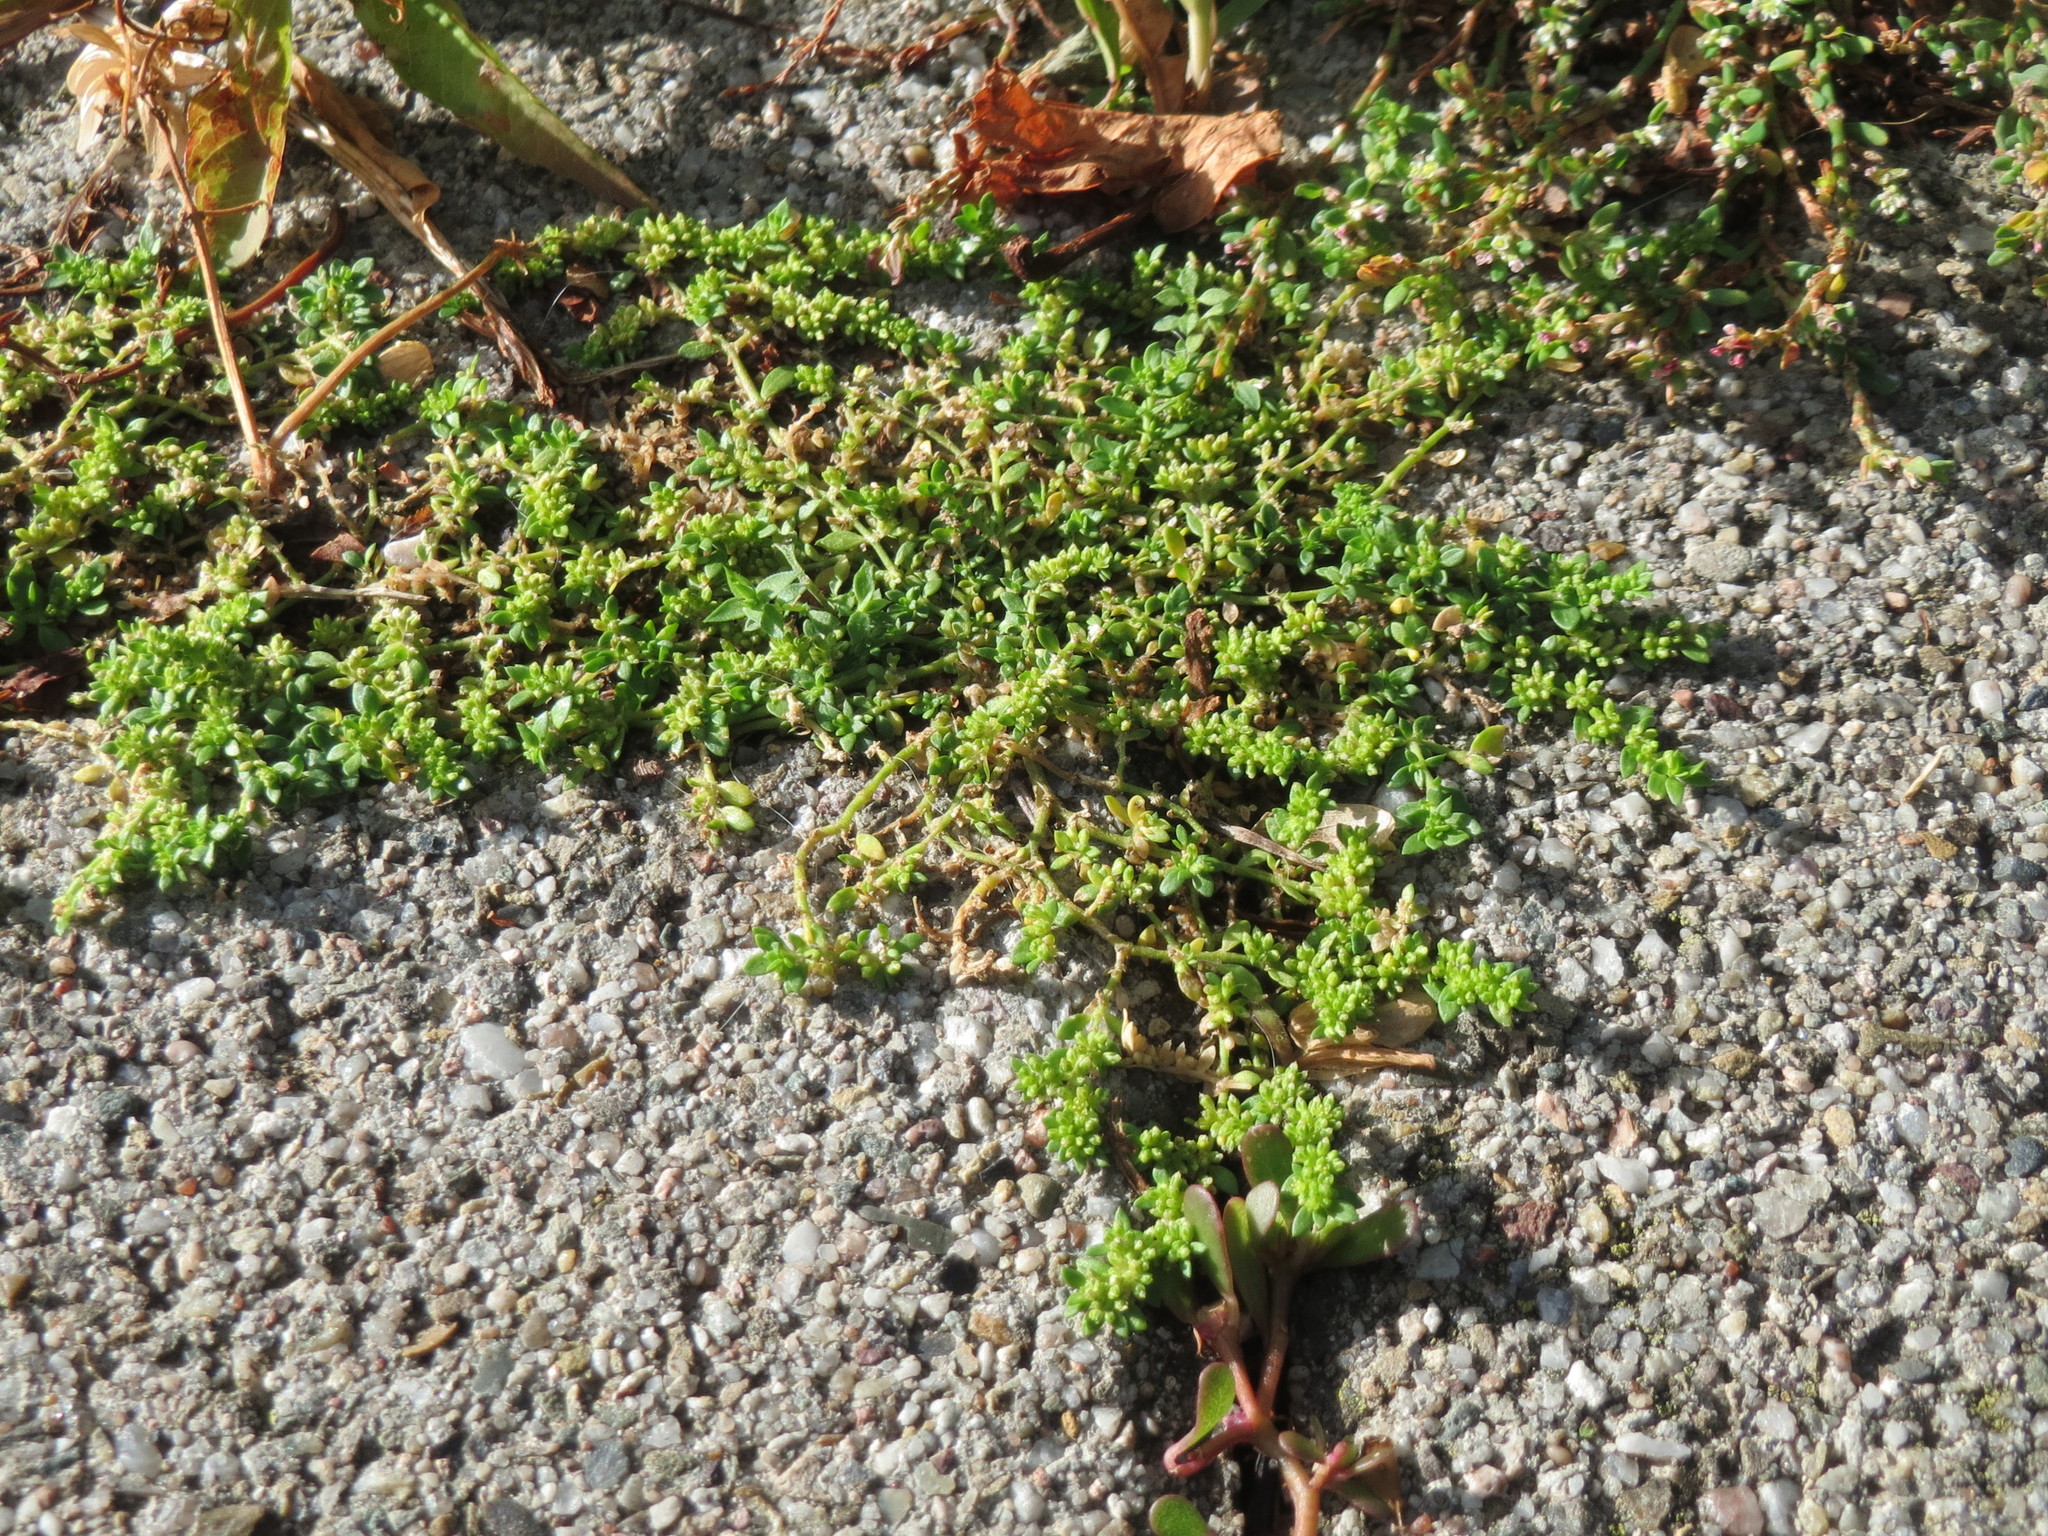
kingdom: Plantae
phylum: Tracheophyta
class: Magnoliopsida
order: Caryophyllales
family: Caryophyllaceae
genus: Herniaria
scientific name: Herniaria glabra
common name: Smooth rupturewort
